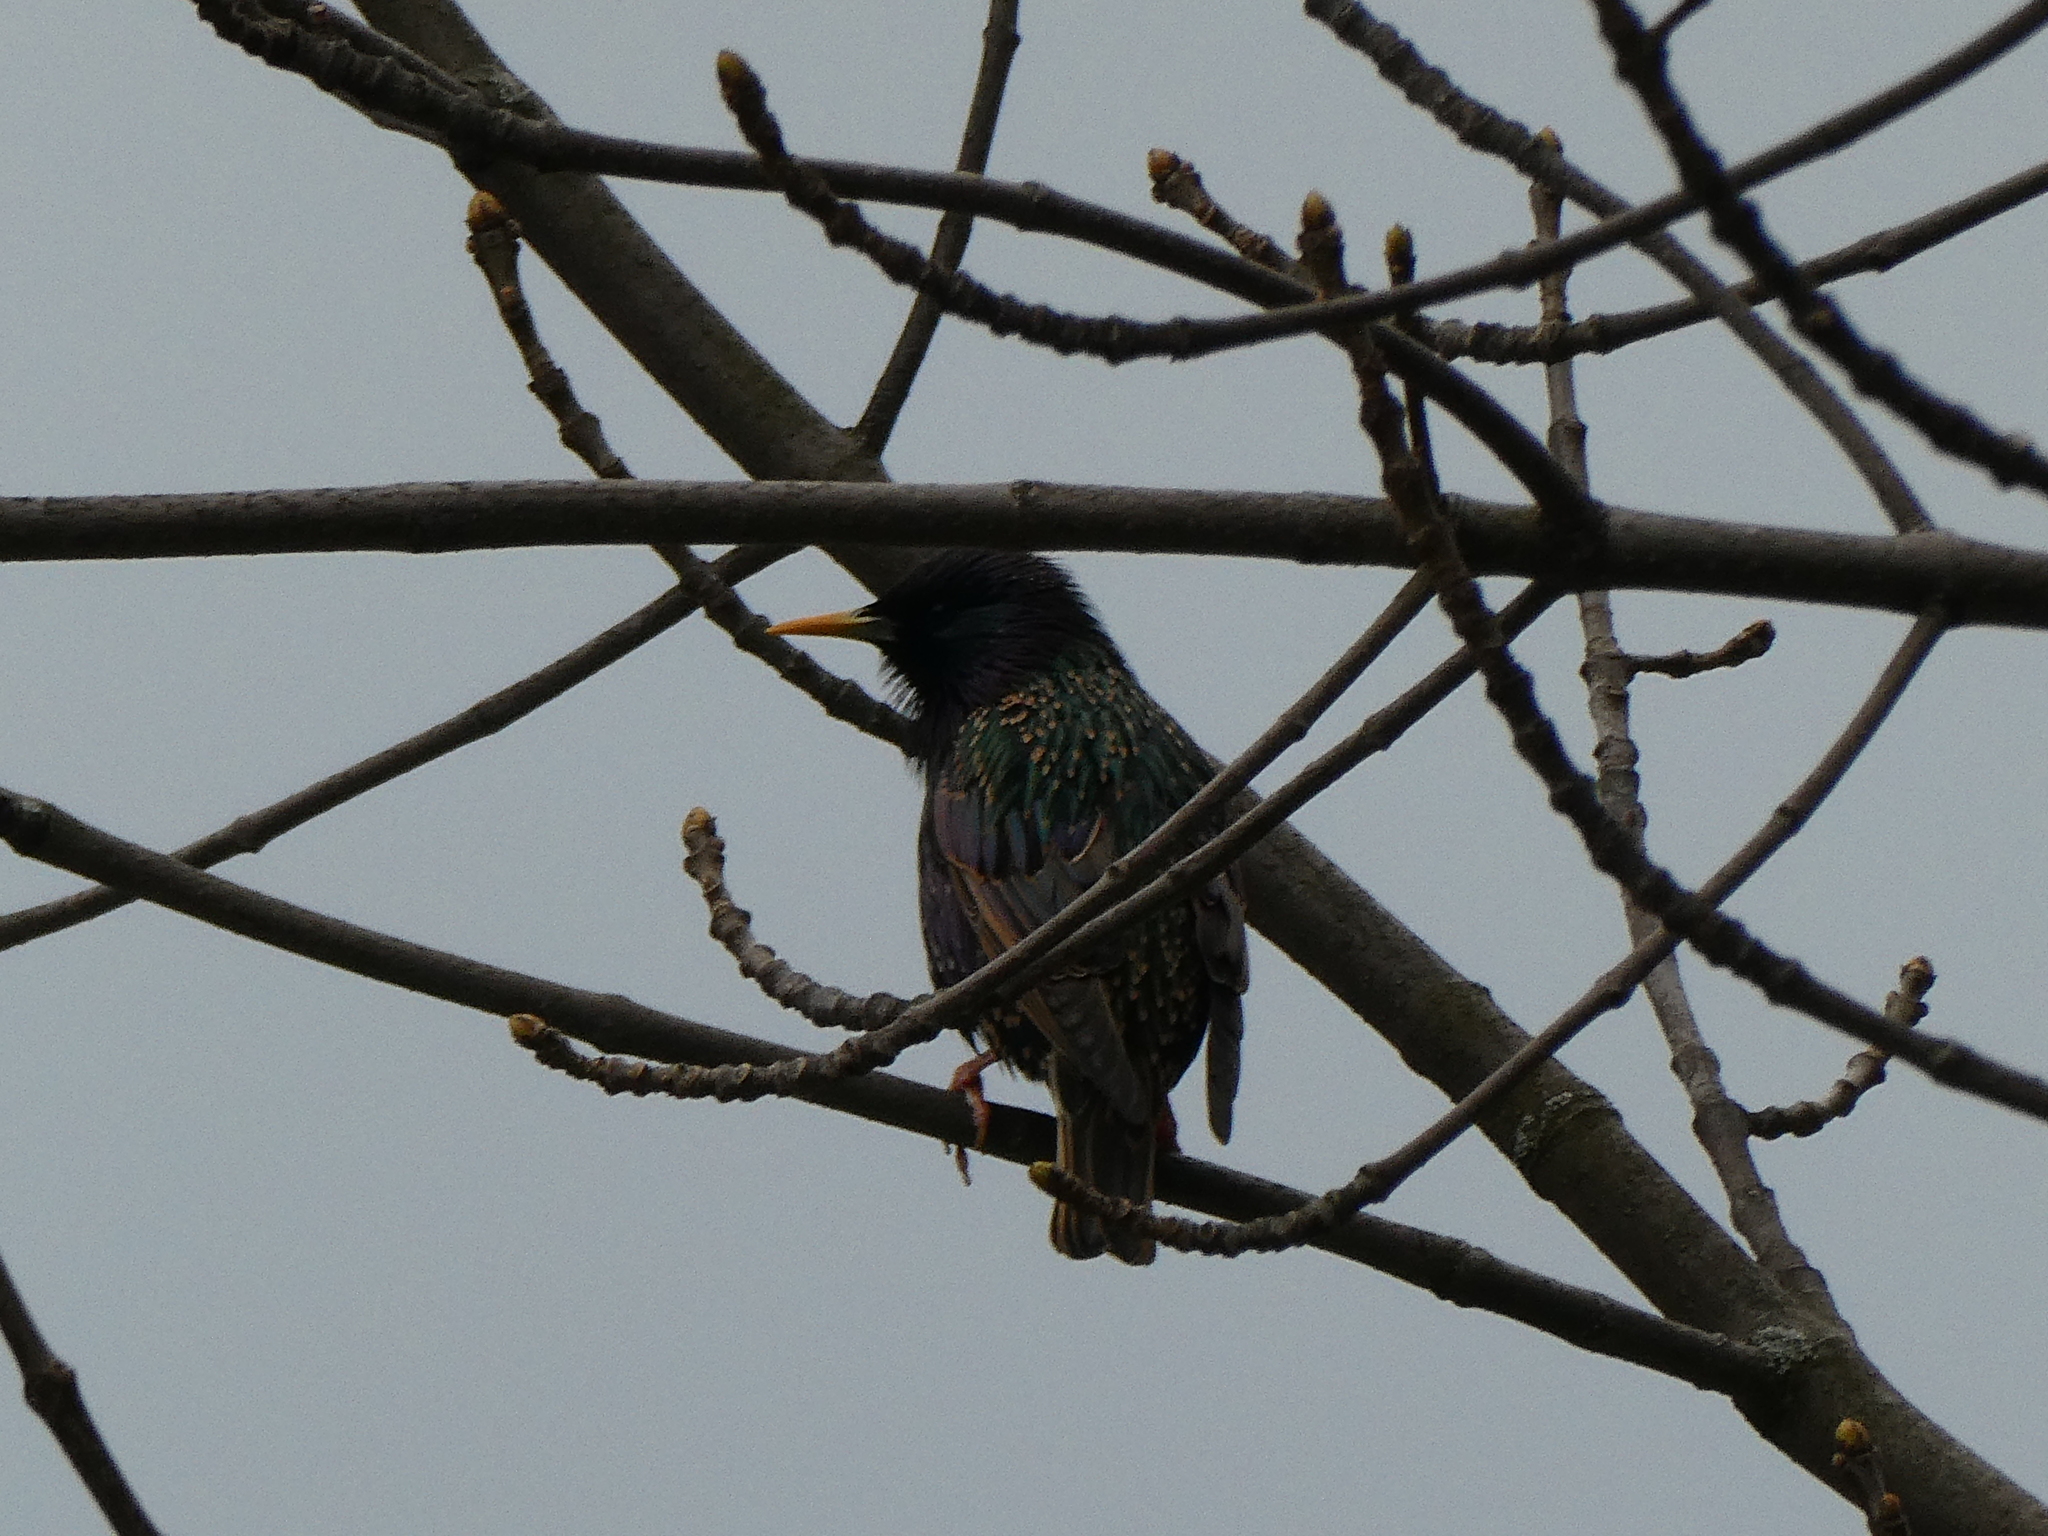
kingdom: Animalia
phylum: Chordata
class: Aves
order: Passeriformes
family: Sturnidae
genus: Sturnus
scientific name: Sturnus vulgaris
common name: Common starling
